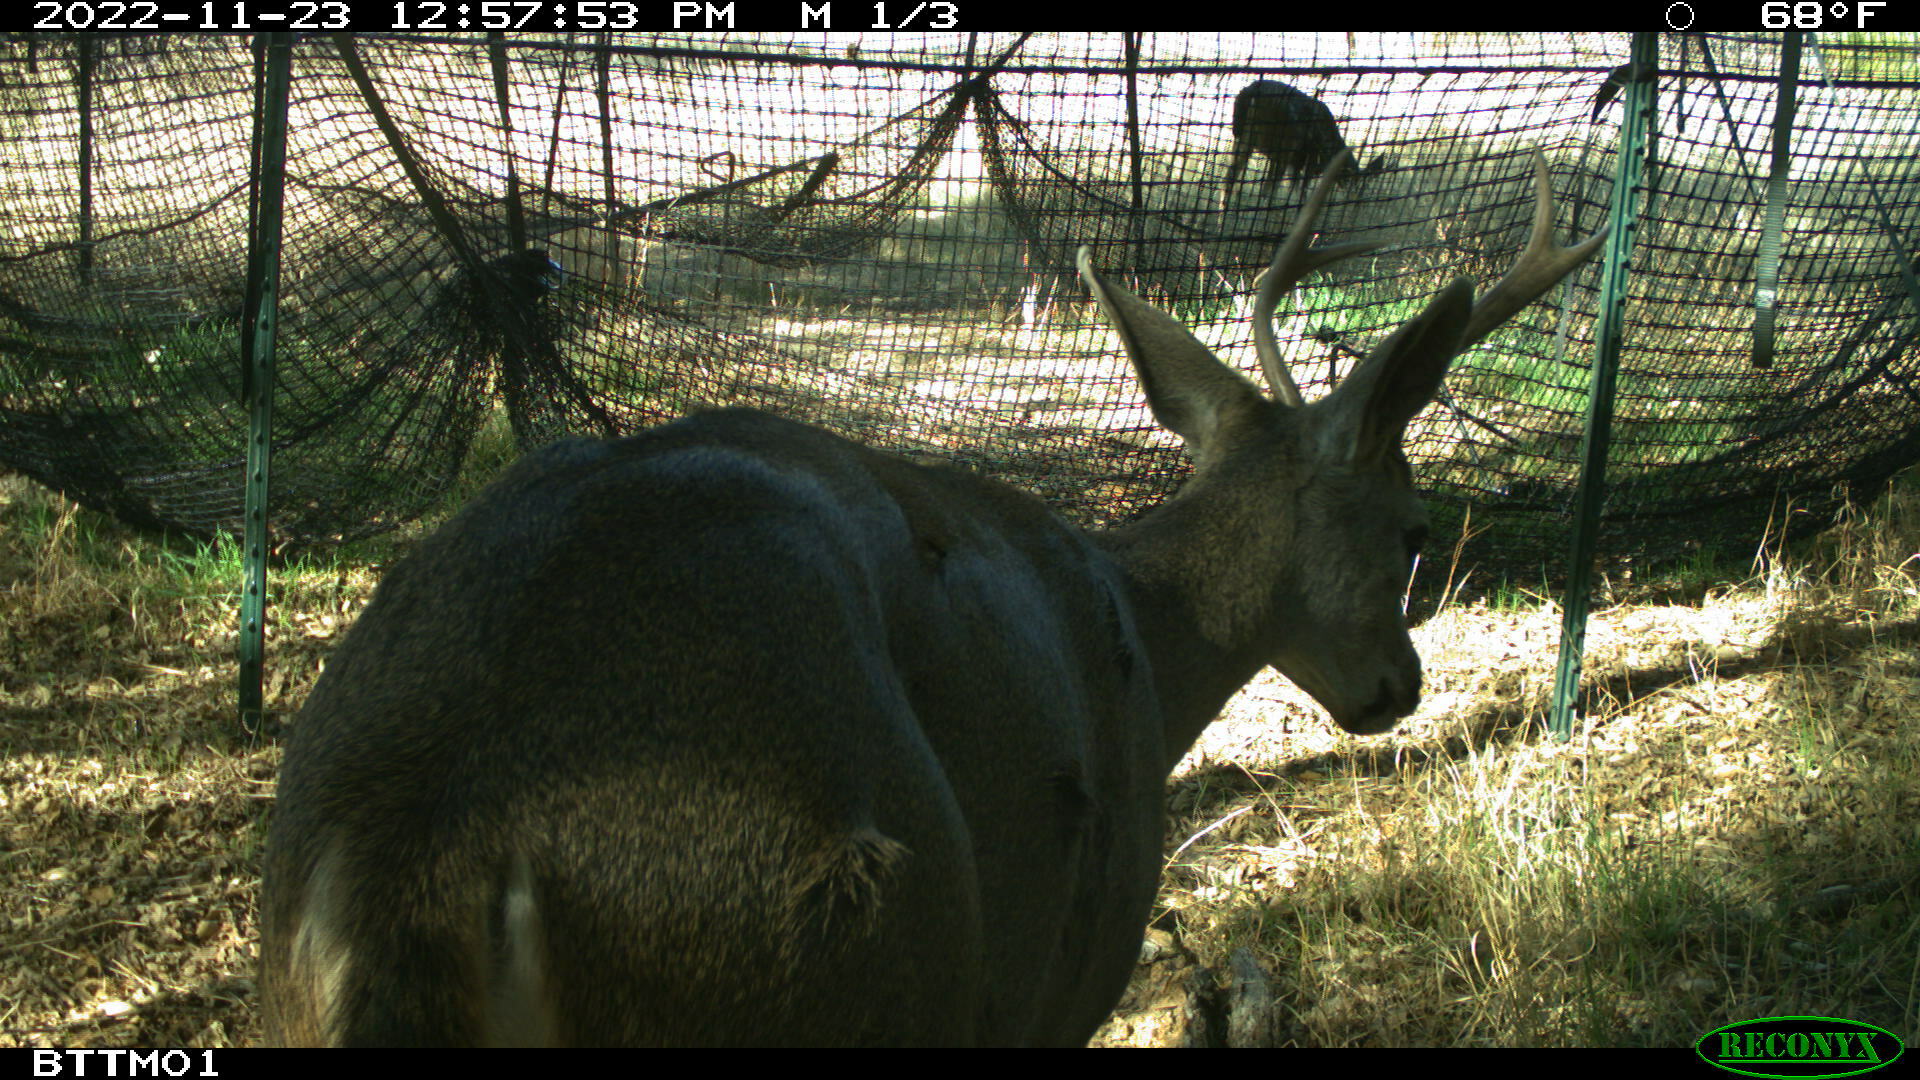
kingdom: Animalia
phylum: Chordata
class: Mammalia
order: Artiodactyla
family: Cervidae
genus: Odocoileus
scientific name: Odocoileus hemionus
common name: Mule deer
